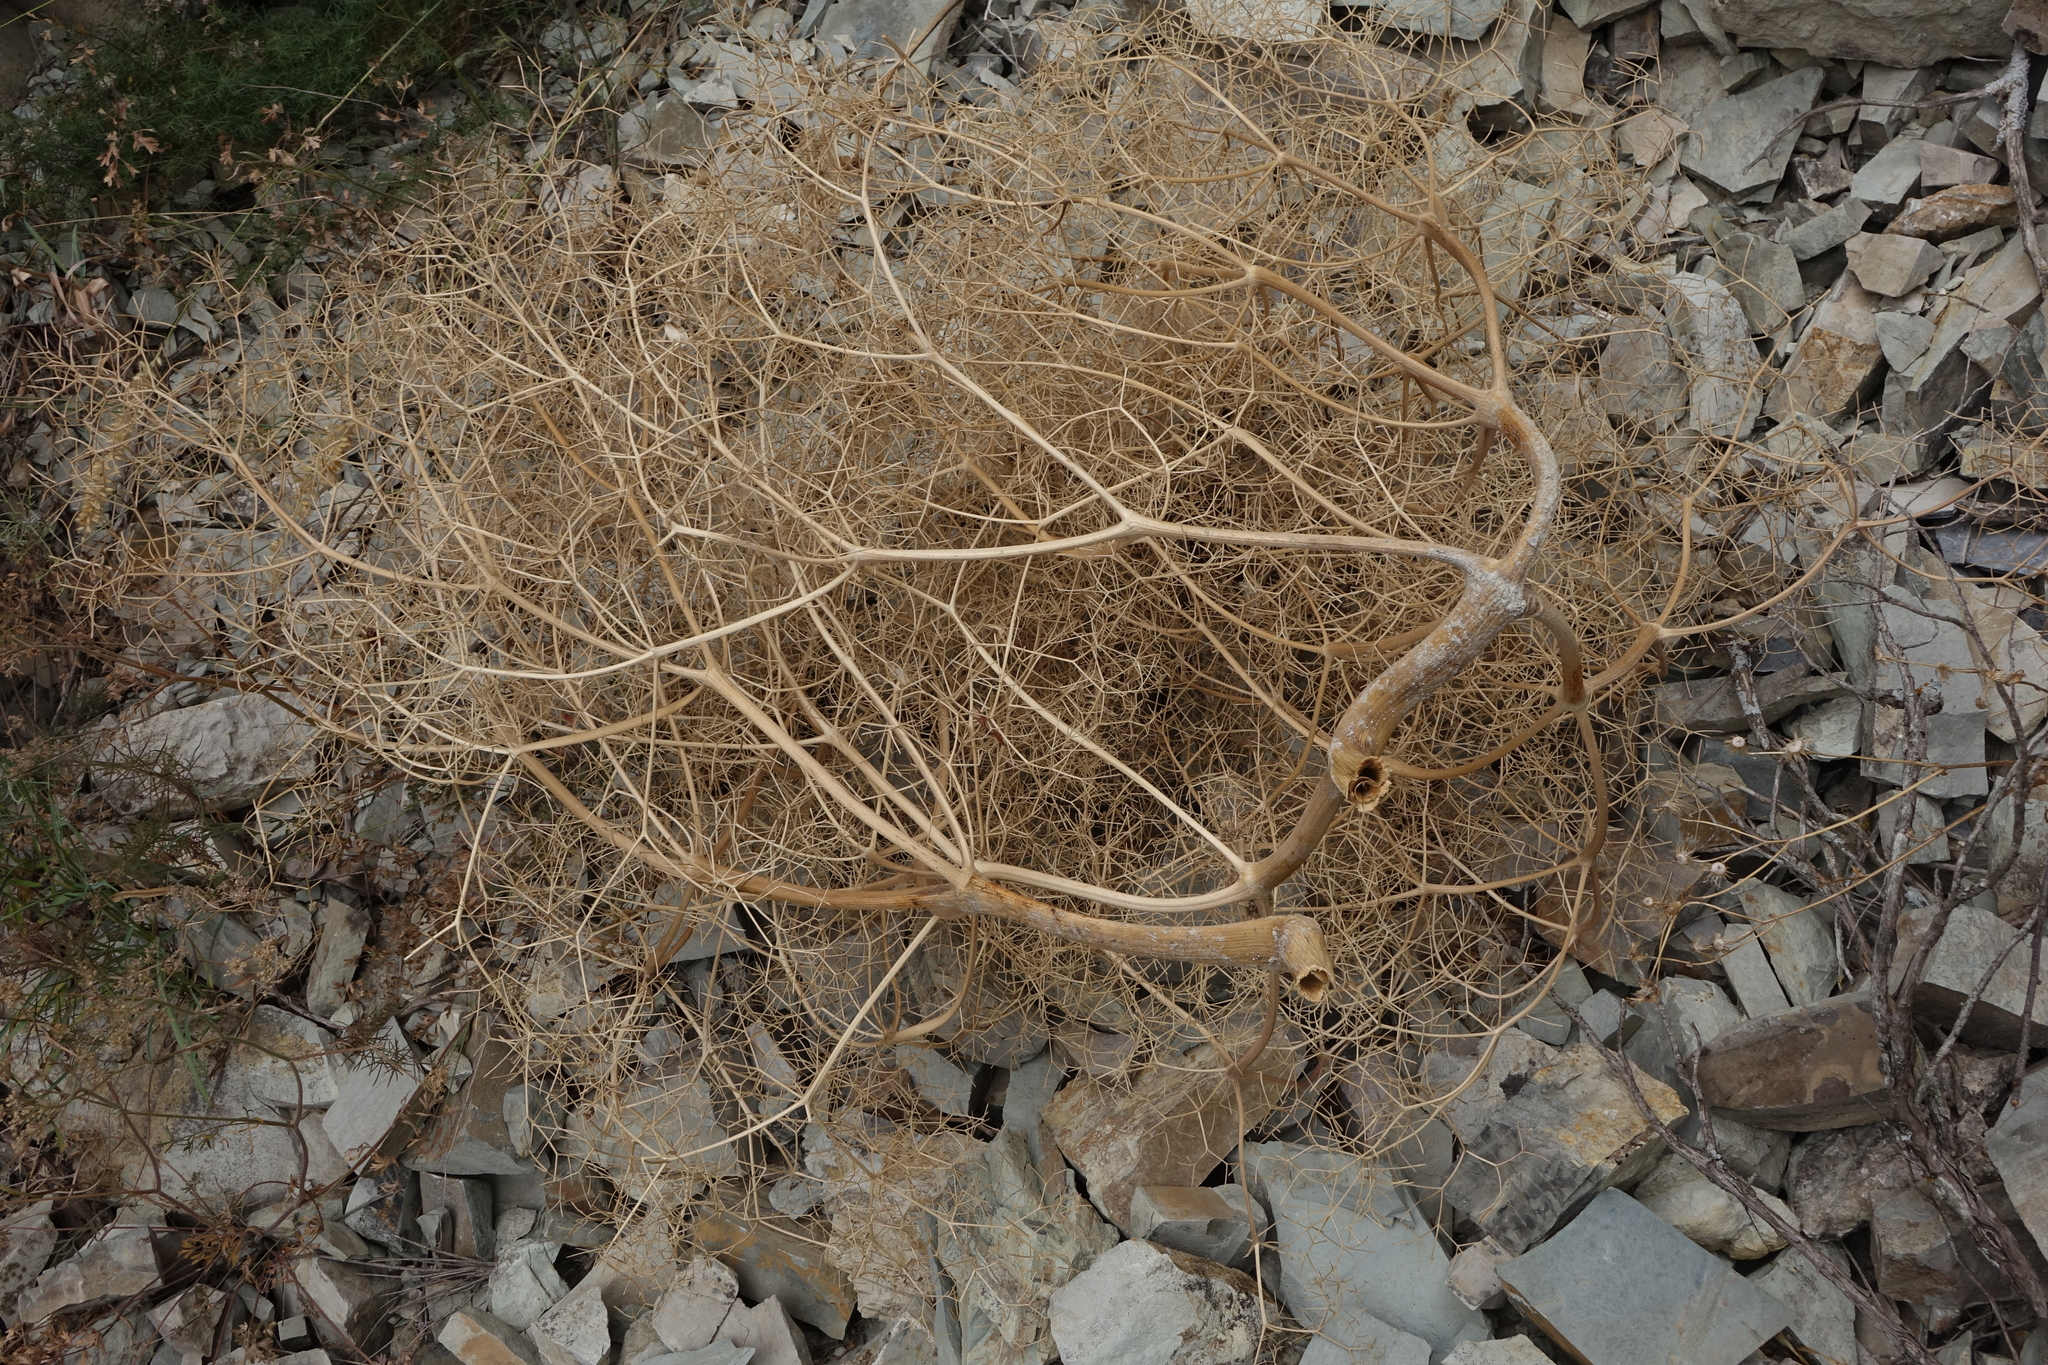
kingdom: Plantae
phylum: Tracheophyta
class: Magnoliopsida
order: Apiales
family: Apiaceae
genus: Bilacunaria
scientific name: Bilacunaria microcarpa
